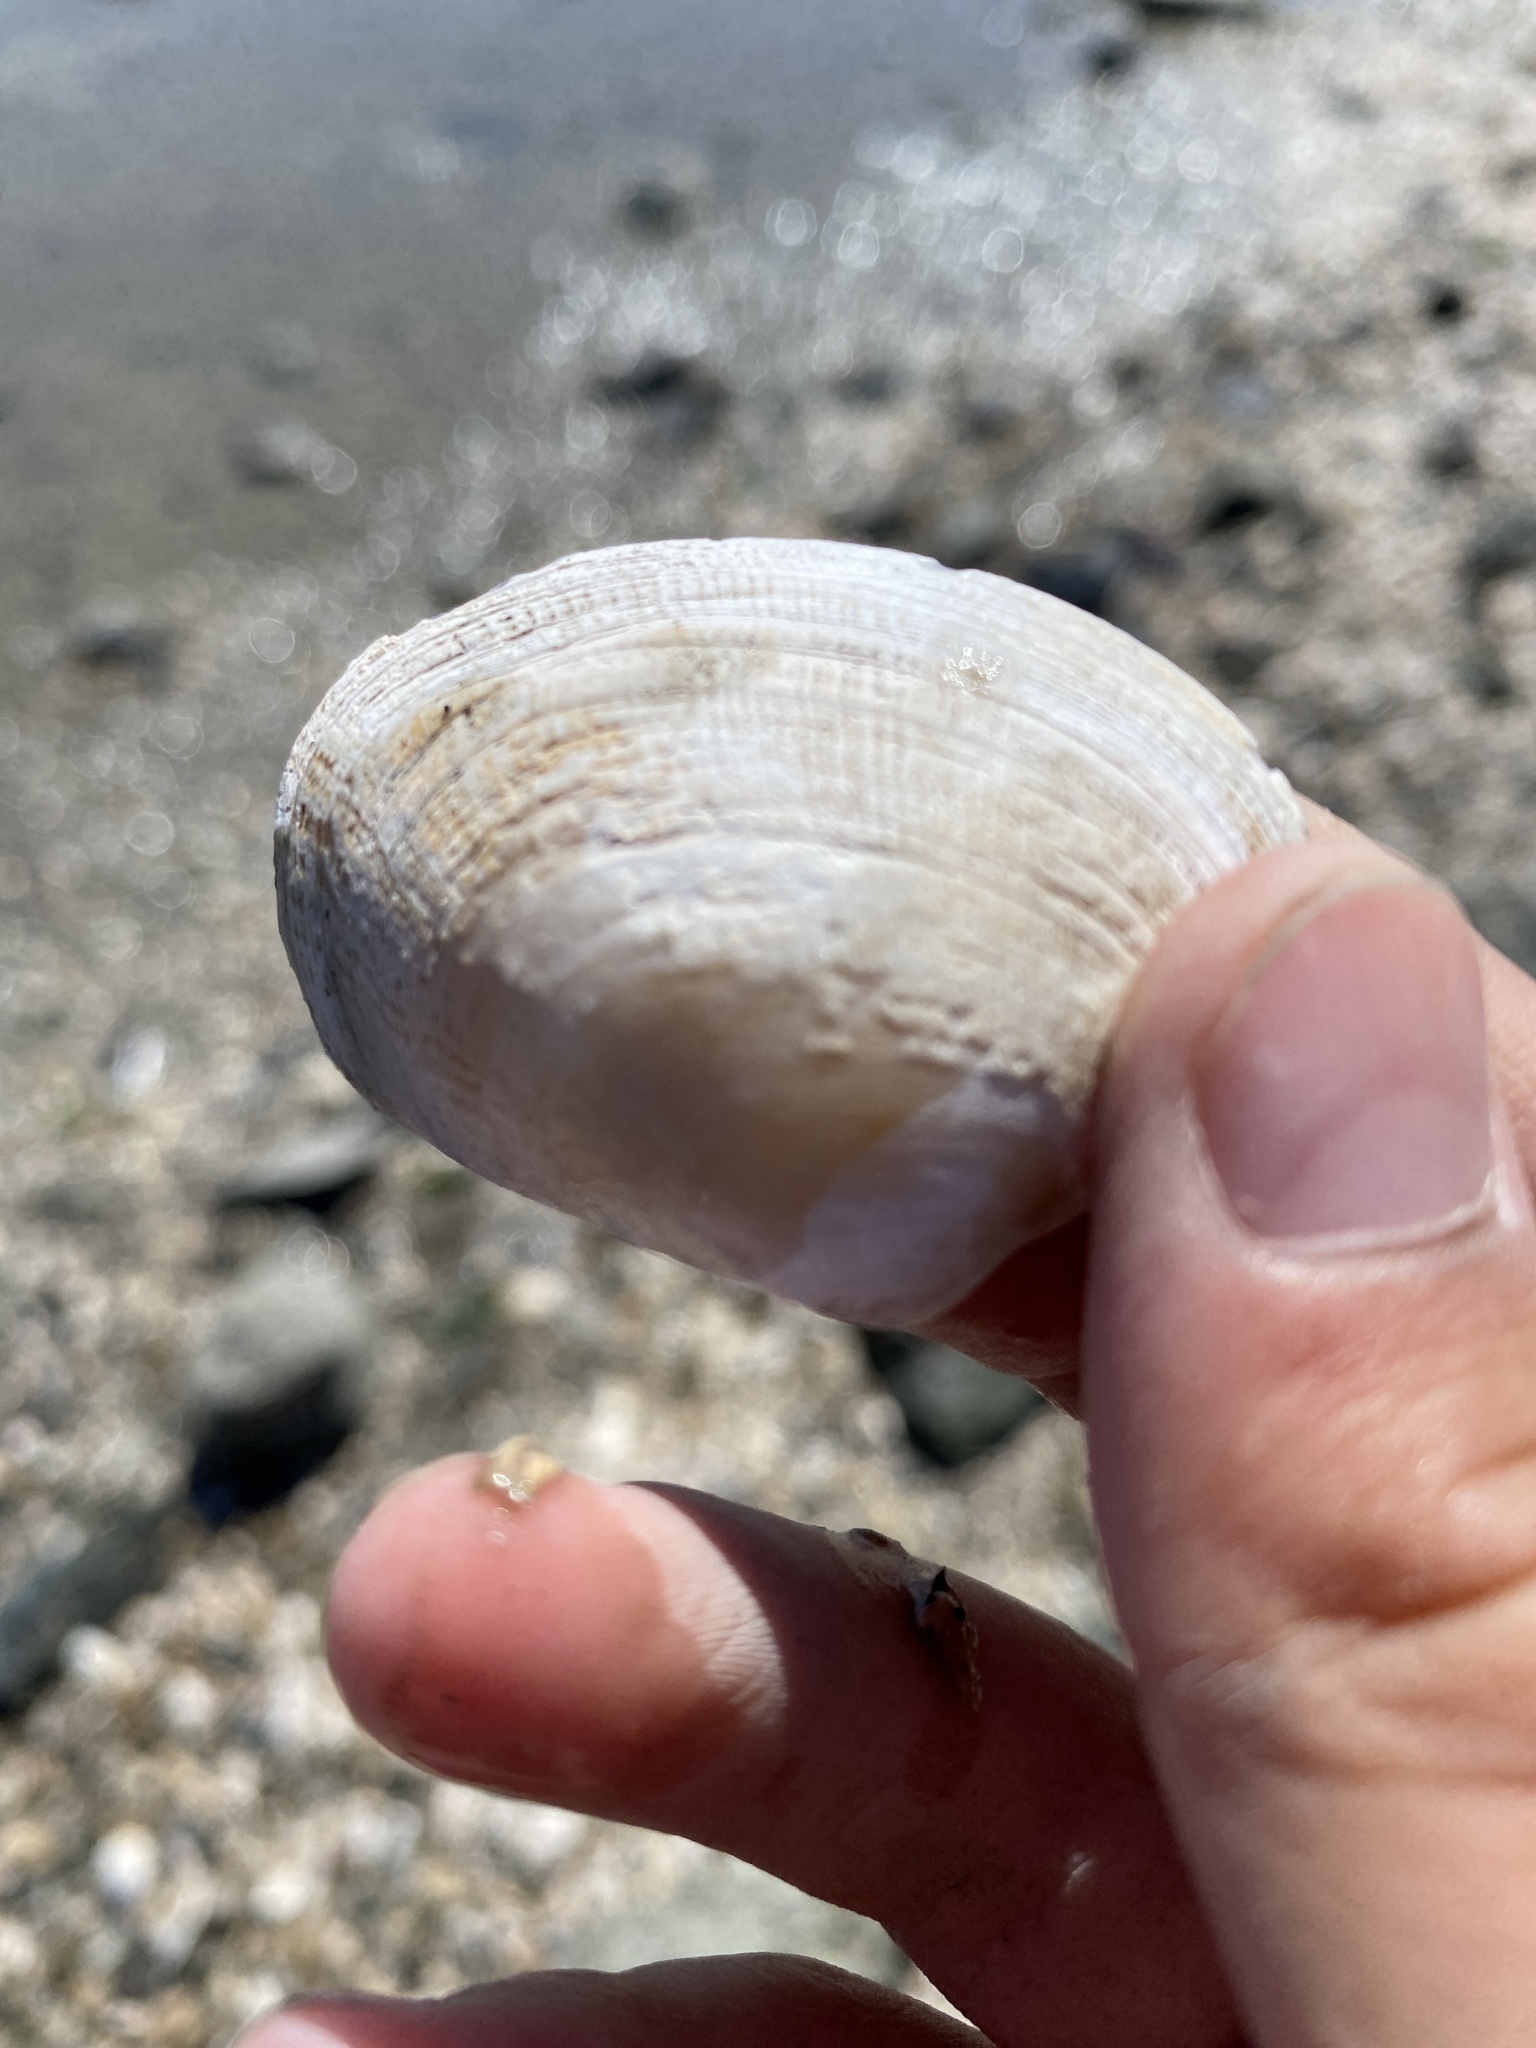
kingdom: Animalia
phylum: Mollusca
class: Bivalvia
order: Venerida
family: Veneridae
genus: Ruditapes
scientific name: Ruditapes philippinarum
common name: Manila clam
